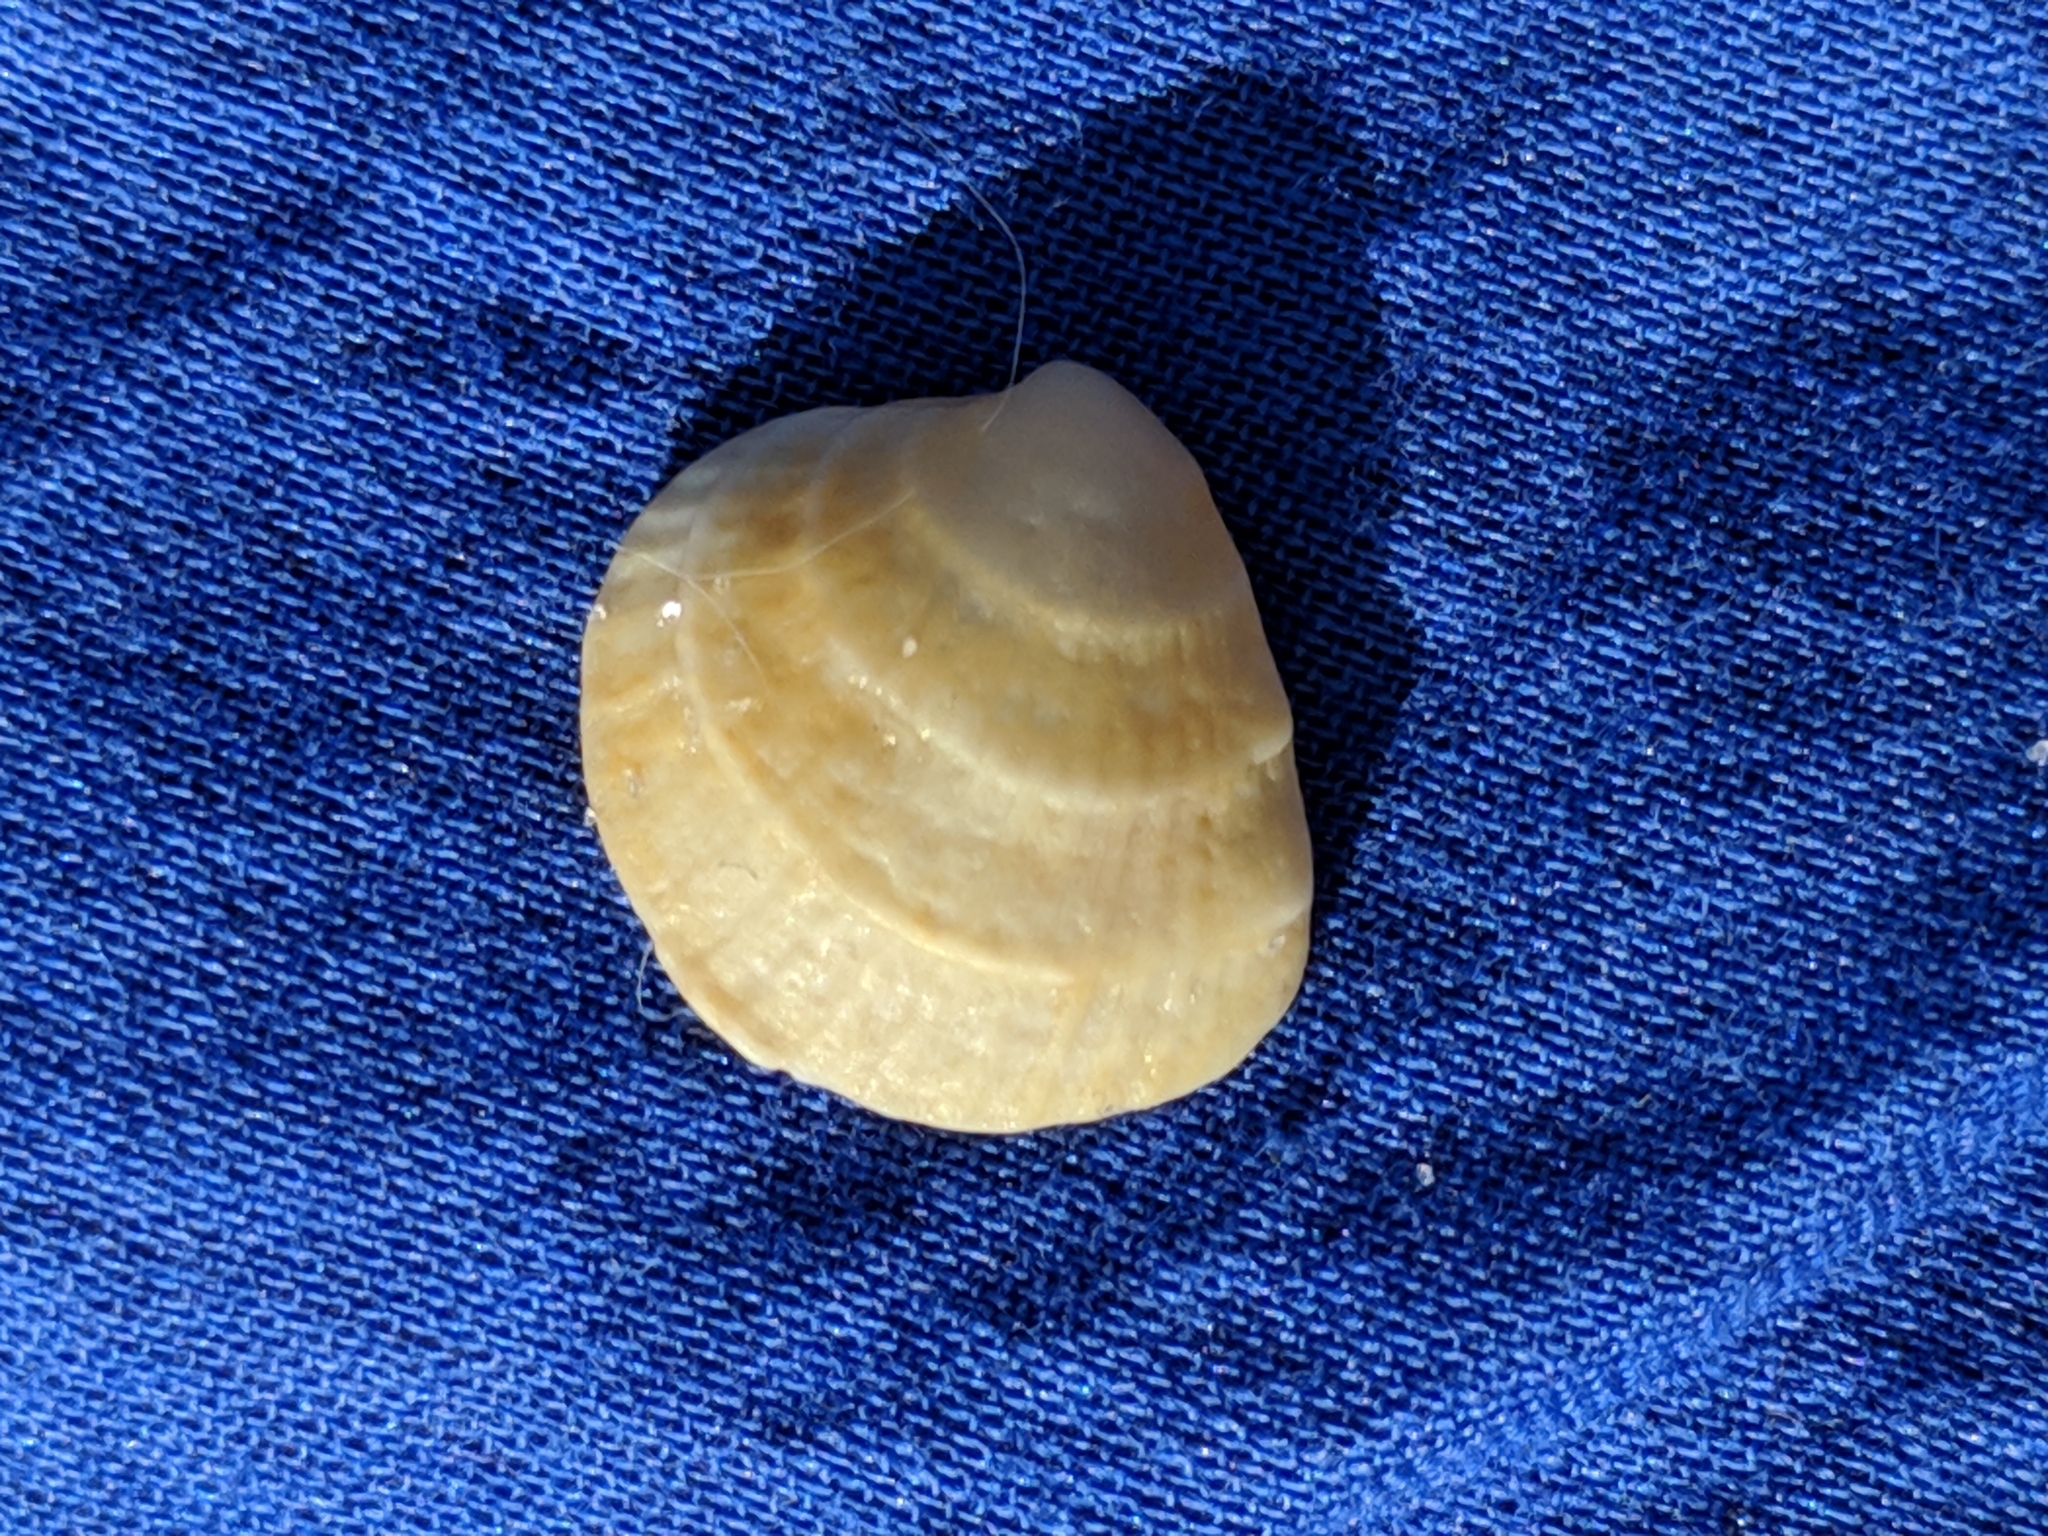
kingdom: Animalia
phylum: Mollusca
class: Bivalvia
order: Venerida
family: Veneridae
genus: Chione
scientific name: Chione elevata
